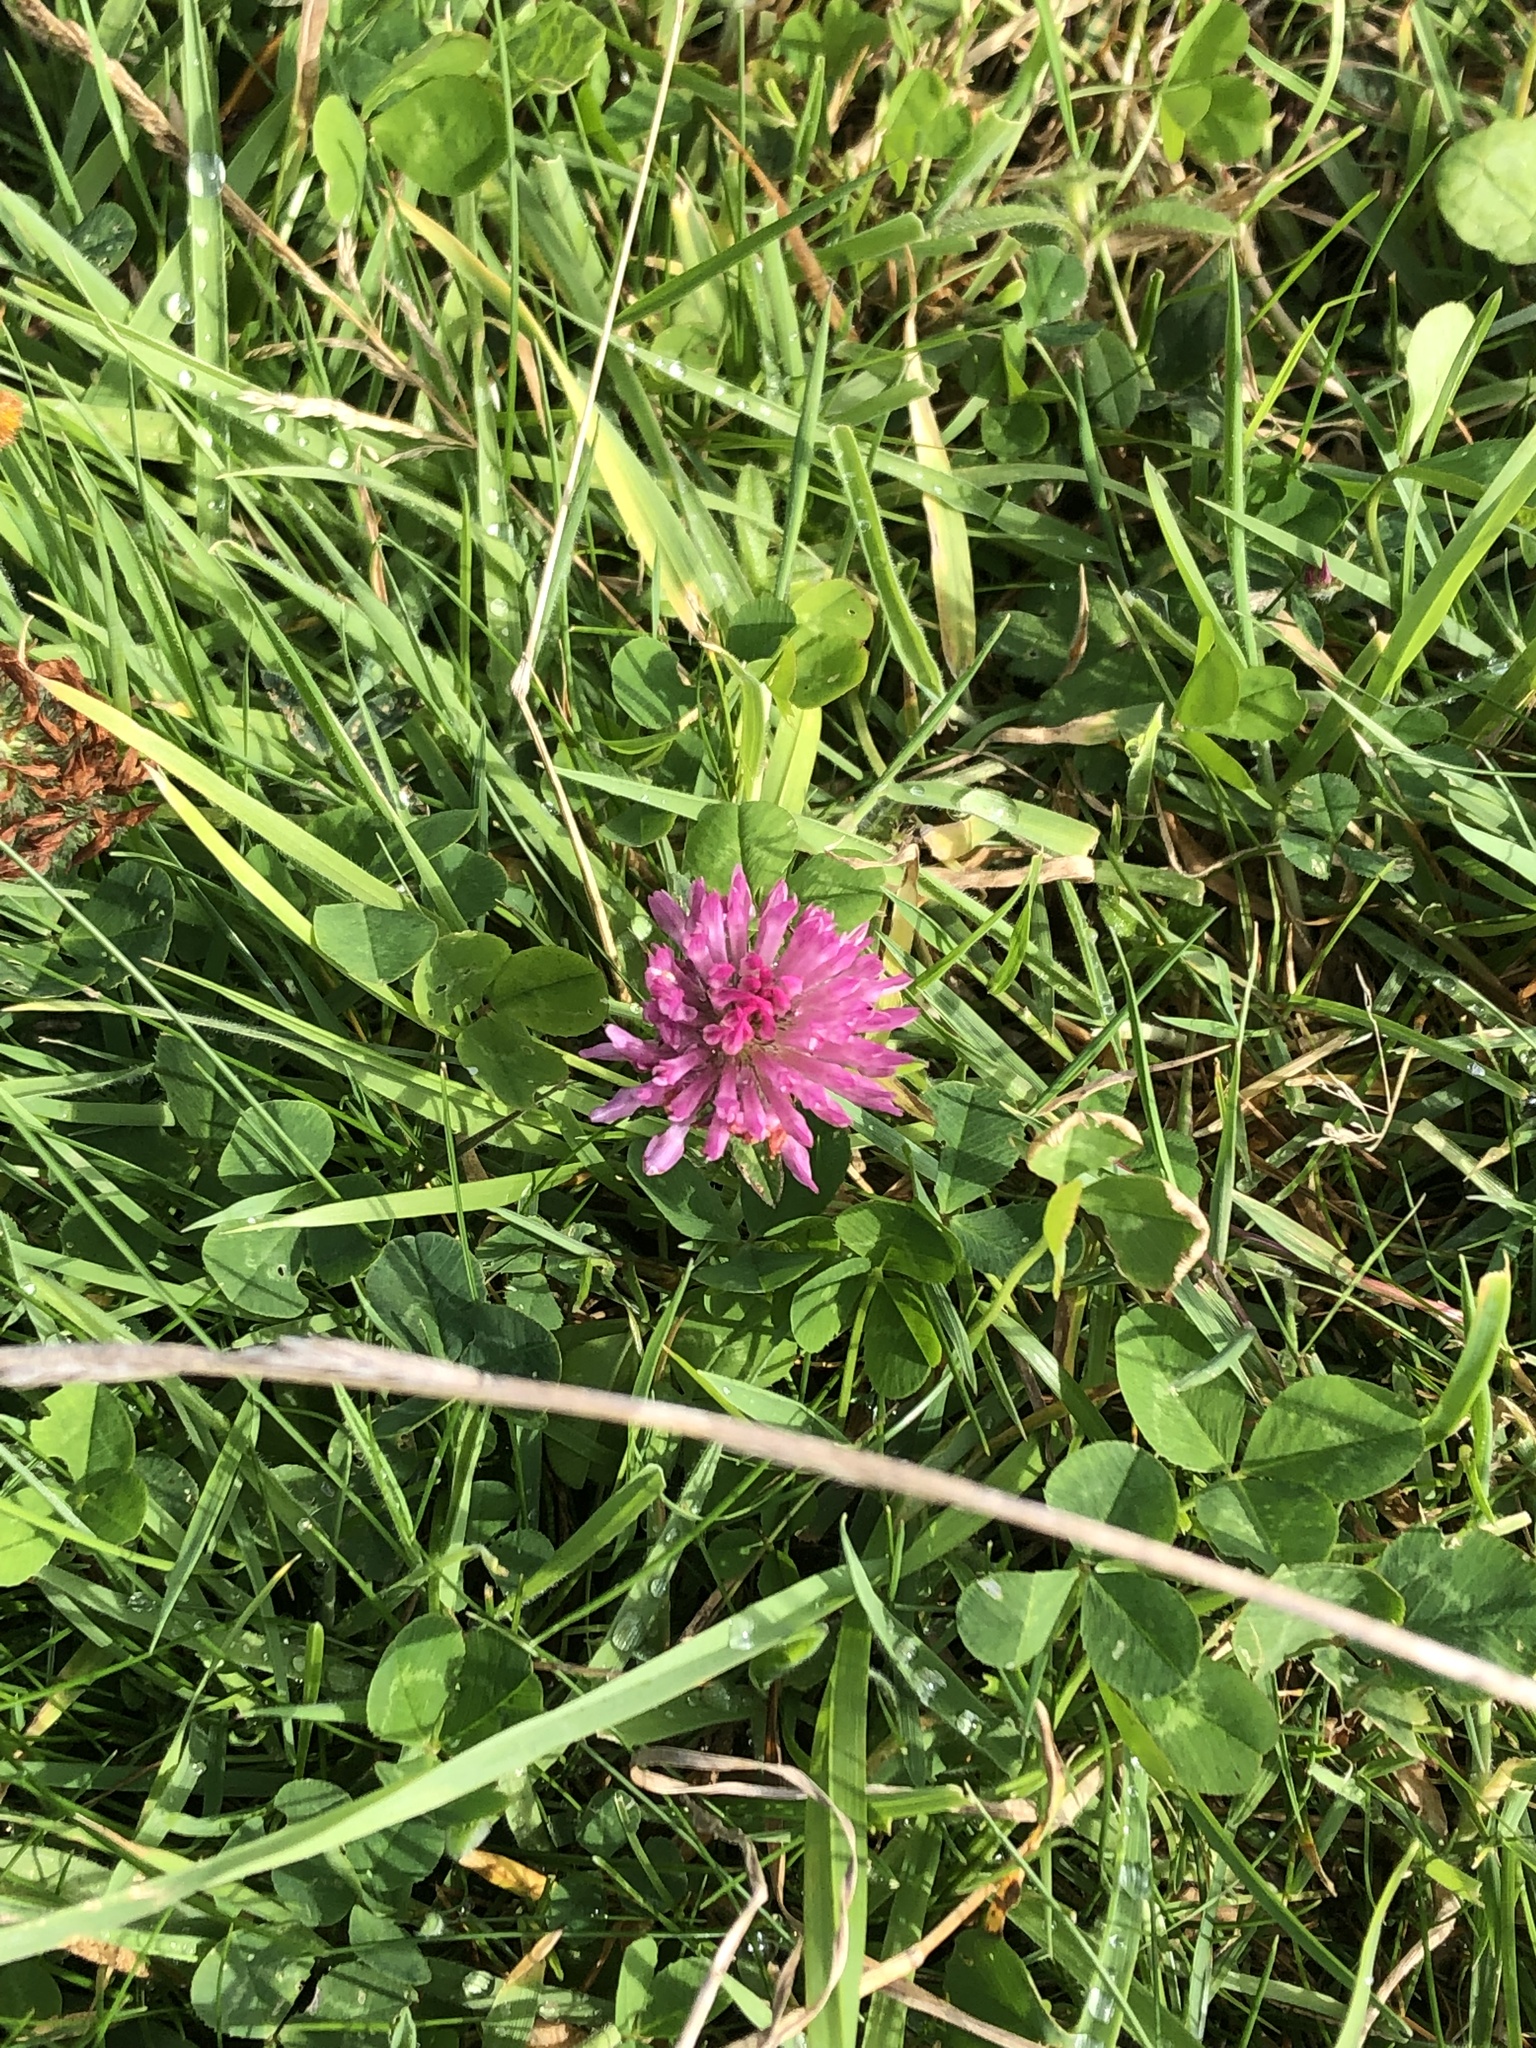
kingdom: Plantae
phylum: Tracheophyta
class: Magnoliopsida
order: Fabales
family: Fabaceae
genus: Trifolium
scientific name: Trifolium pratense
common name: Red clover
